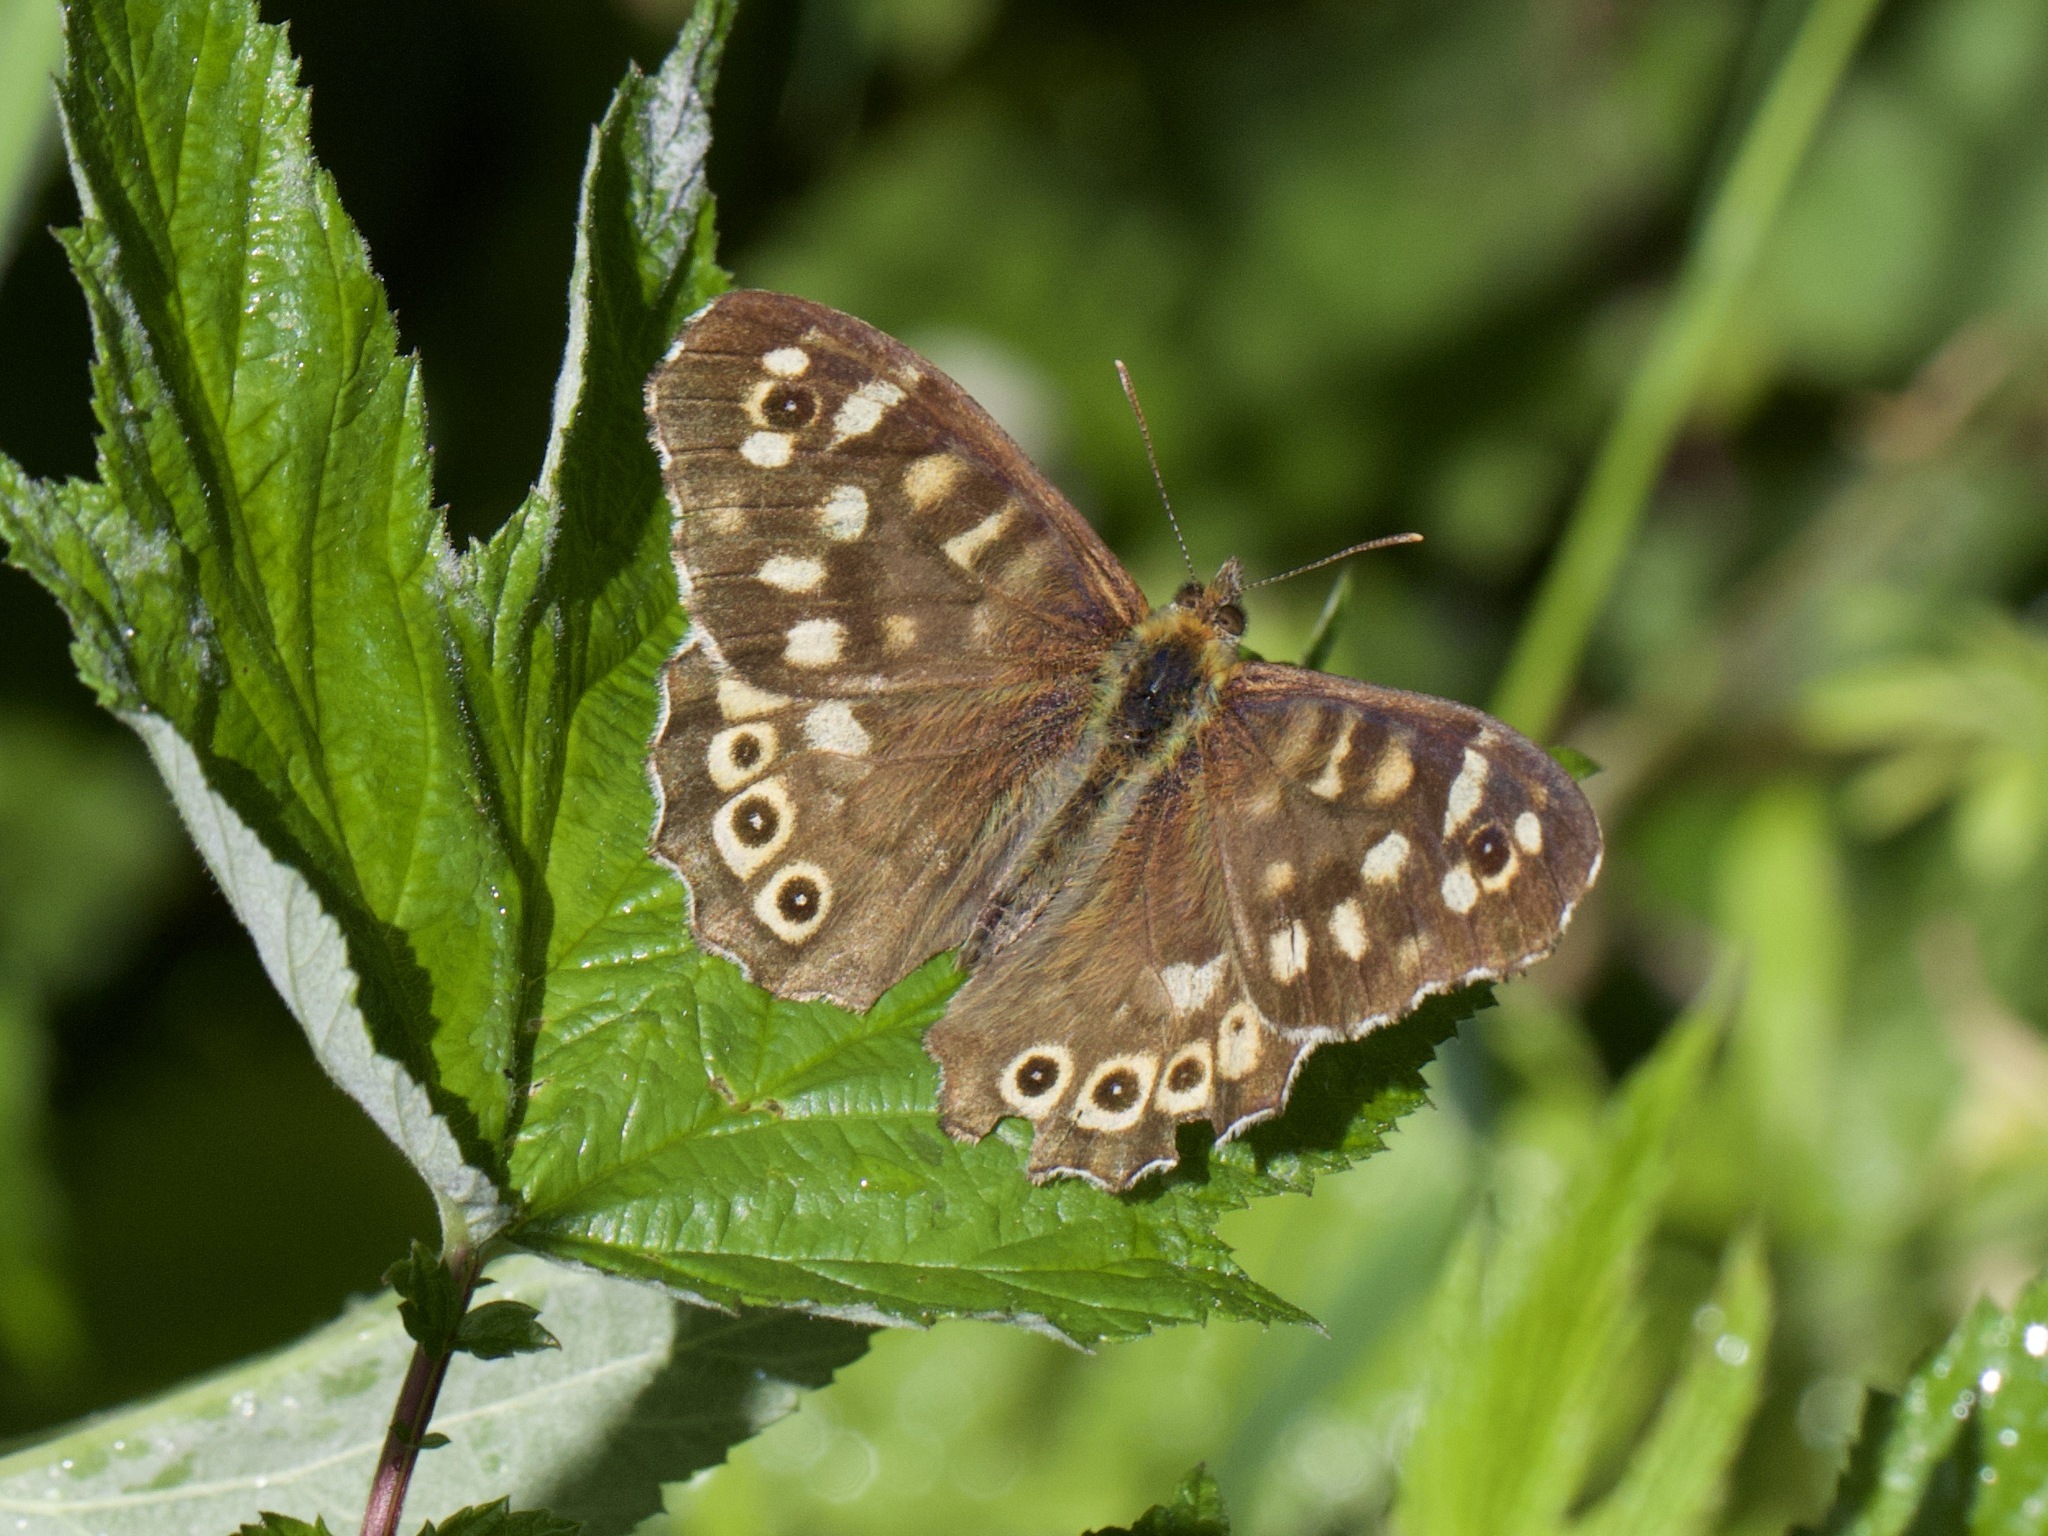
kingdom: Animalia
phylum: Arthropoda
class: Insecta
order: Lepidoptera
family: Nymphalidae
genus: Pararge
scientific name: Pararge aegeria
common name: Speckled wood
